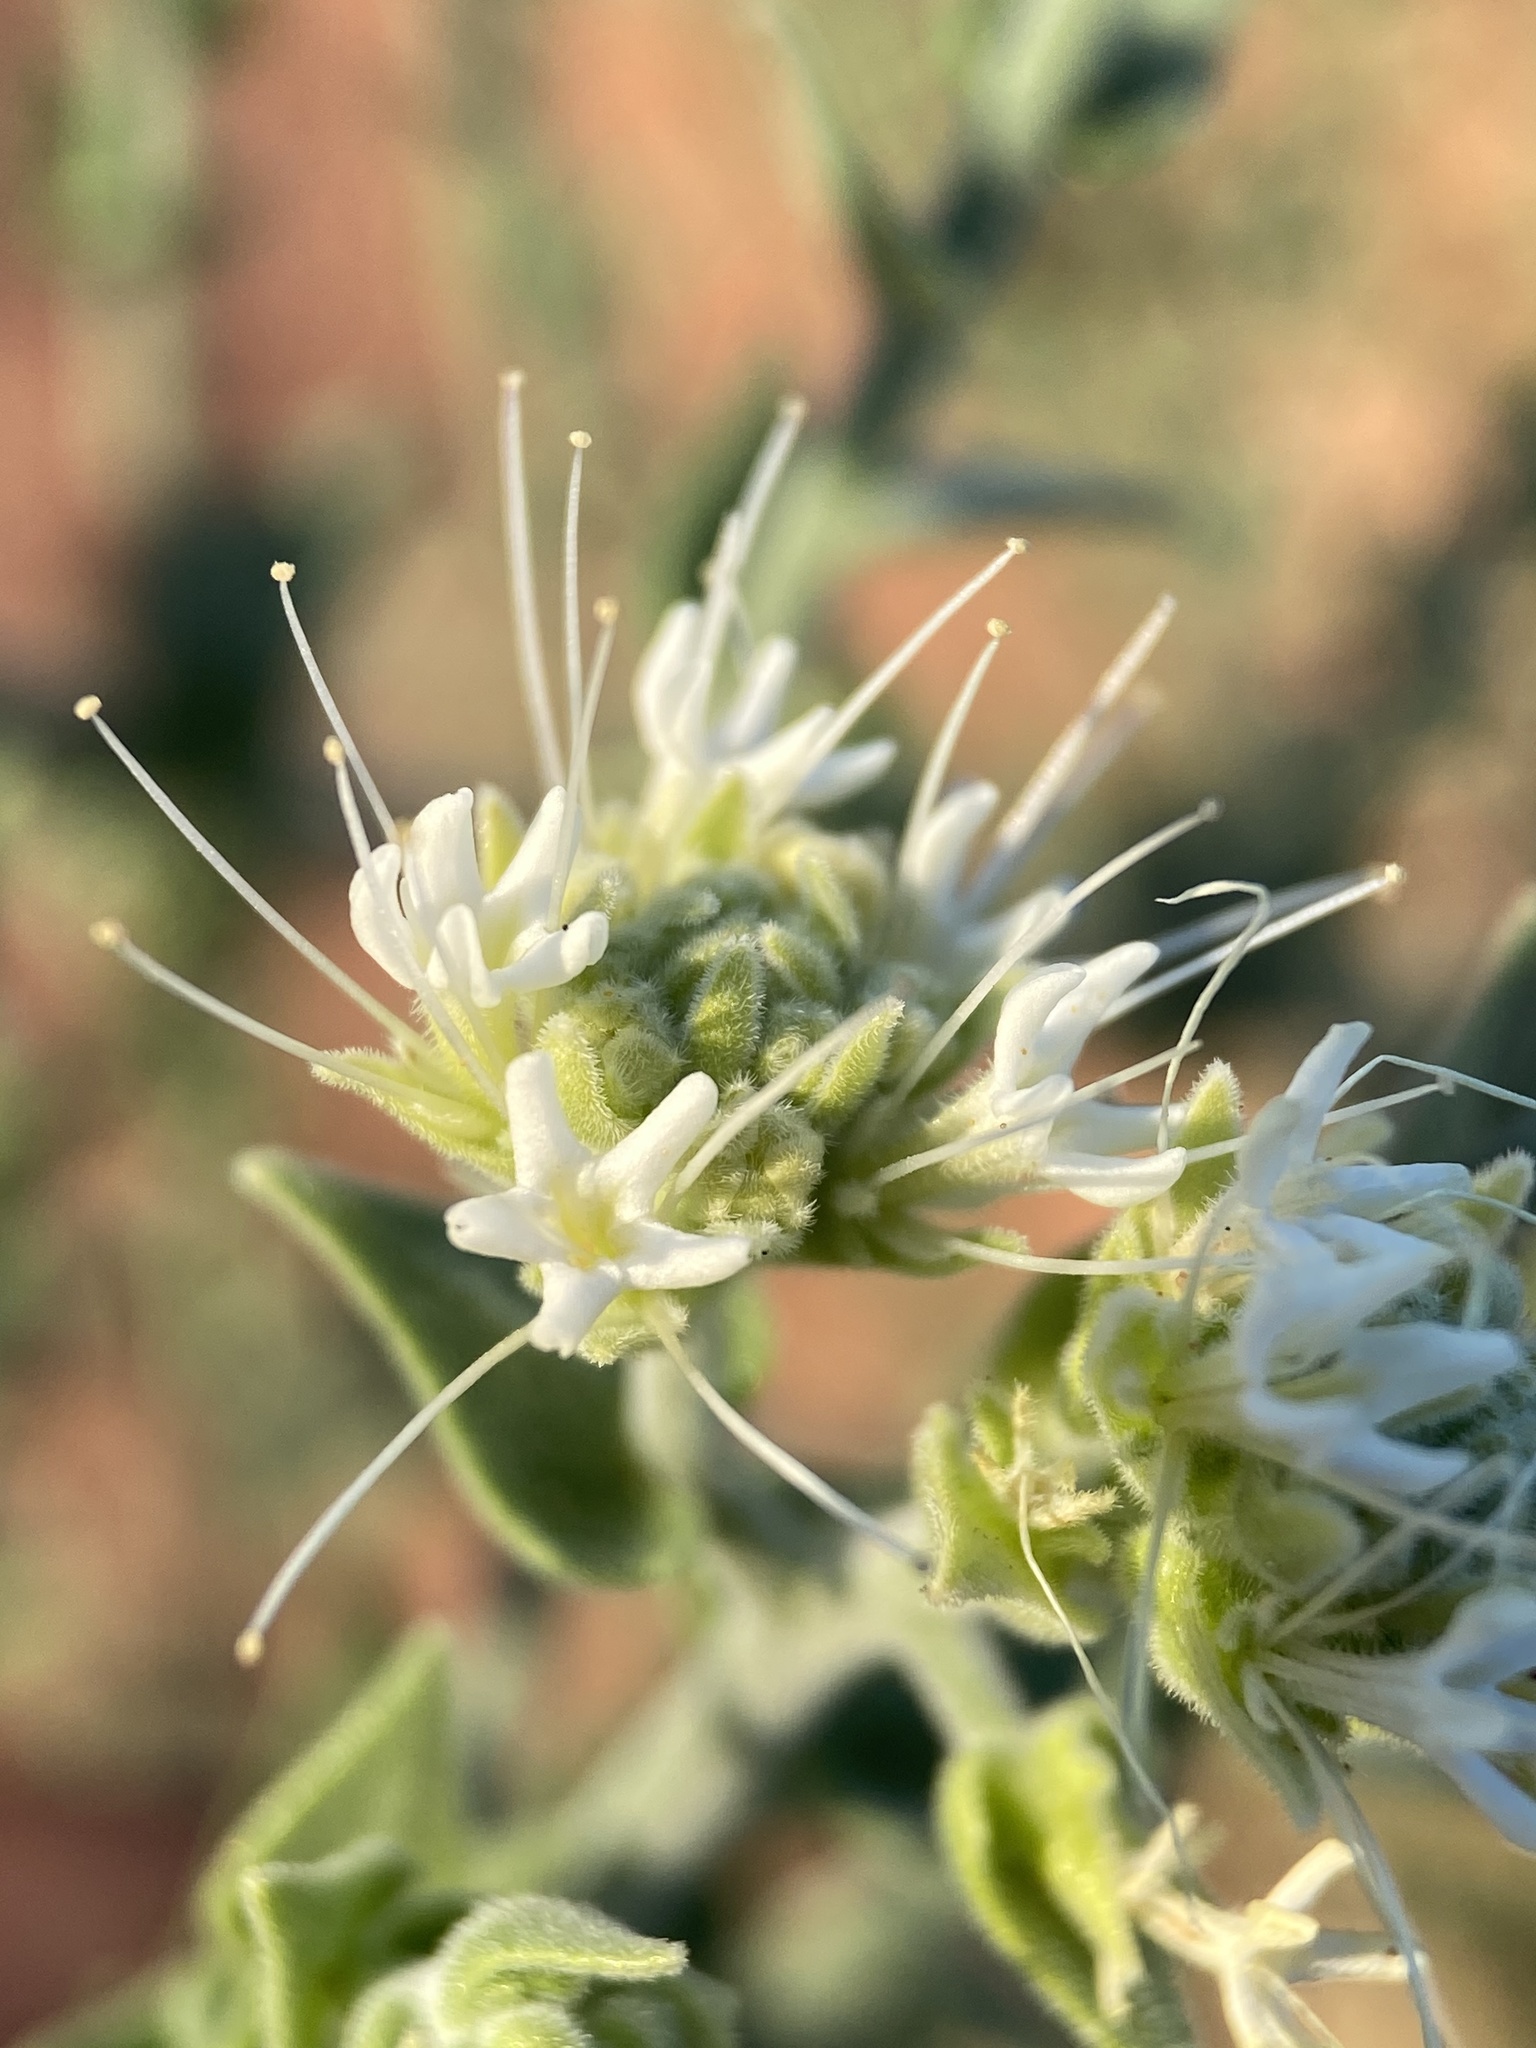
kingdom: Plantae
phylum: Tracheophyta
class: Magnoliopsida
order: Cornales
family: Loasaceae
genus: Petalonyx
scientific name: Petalonyx thurberi
